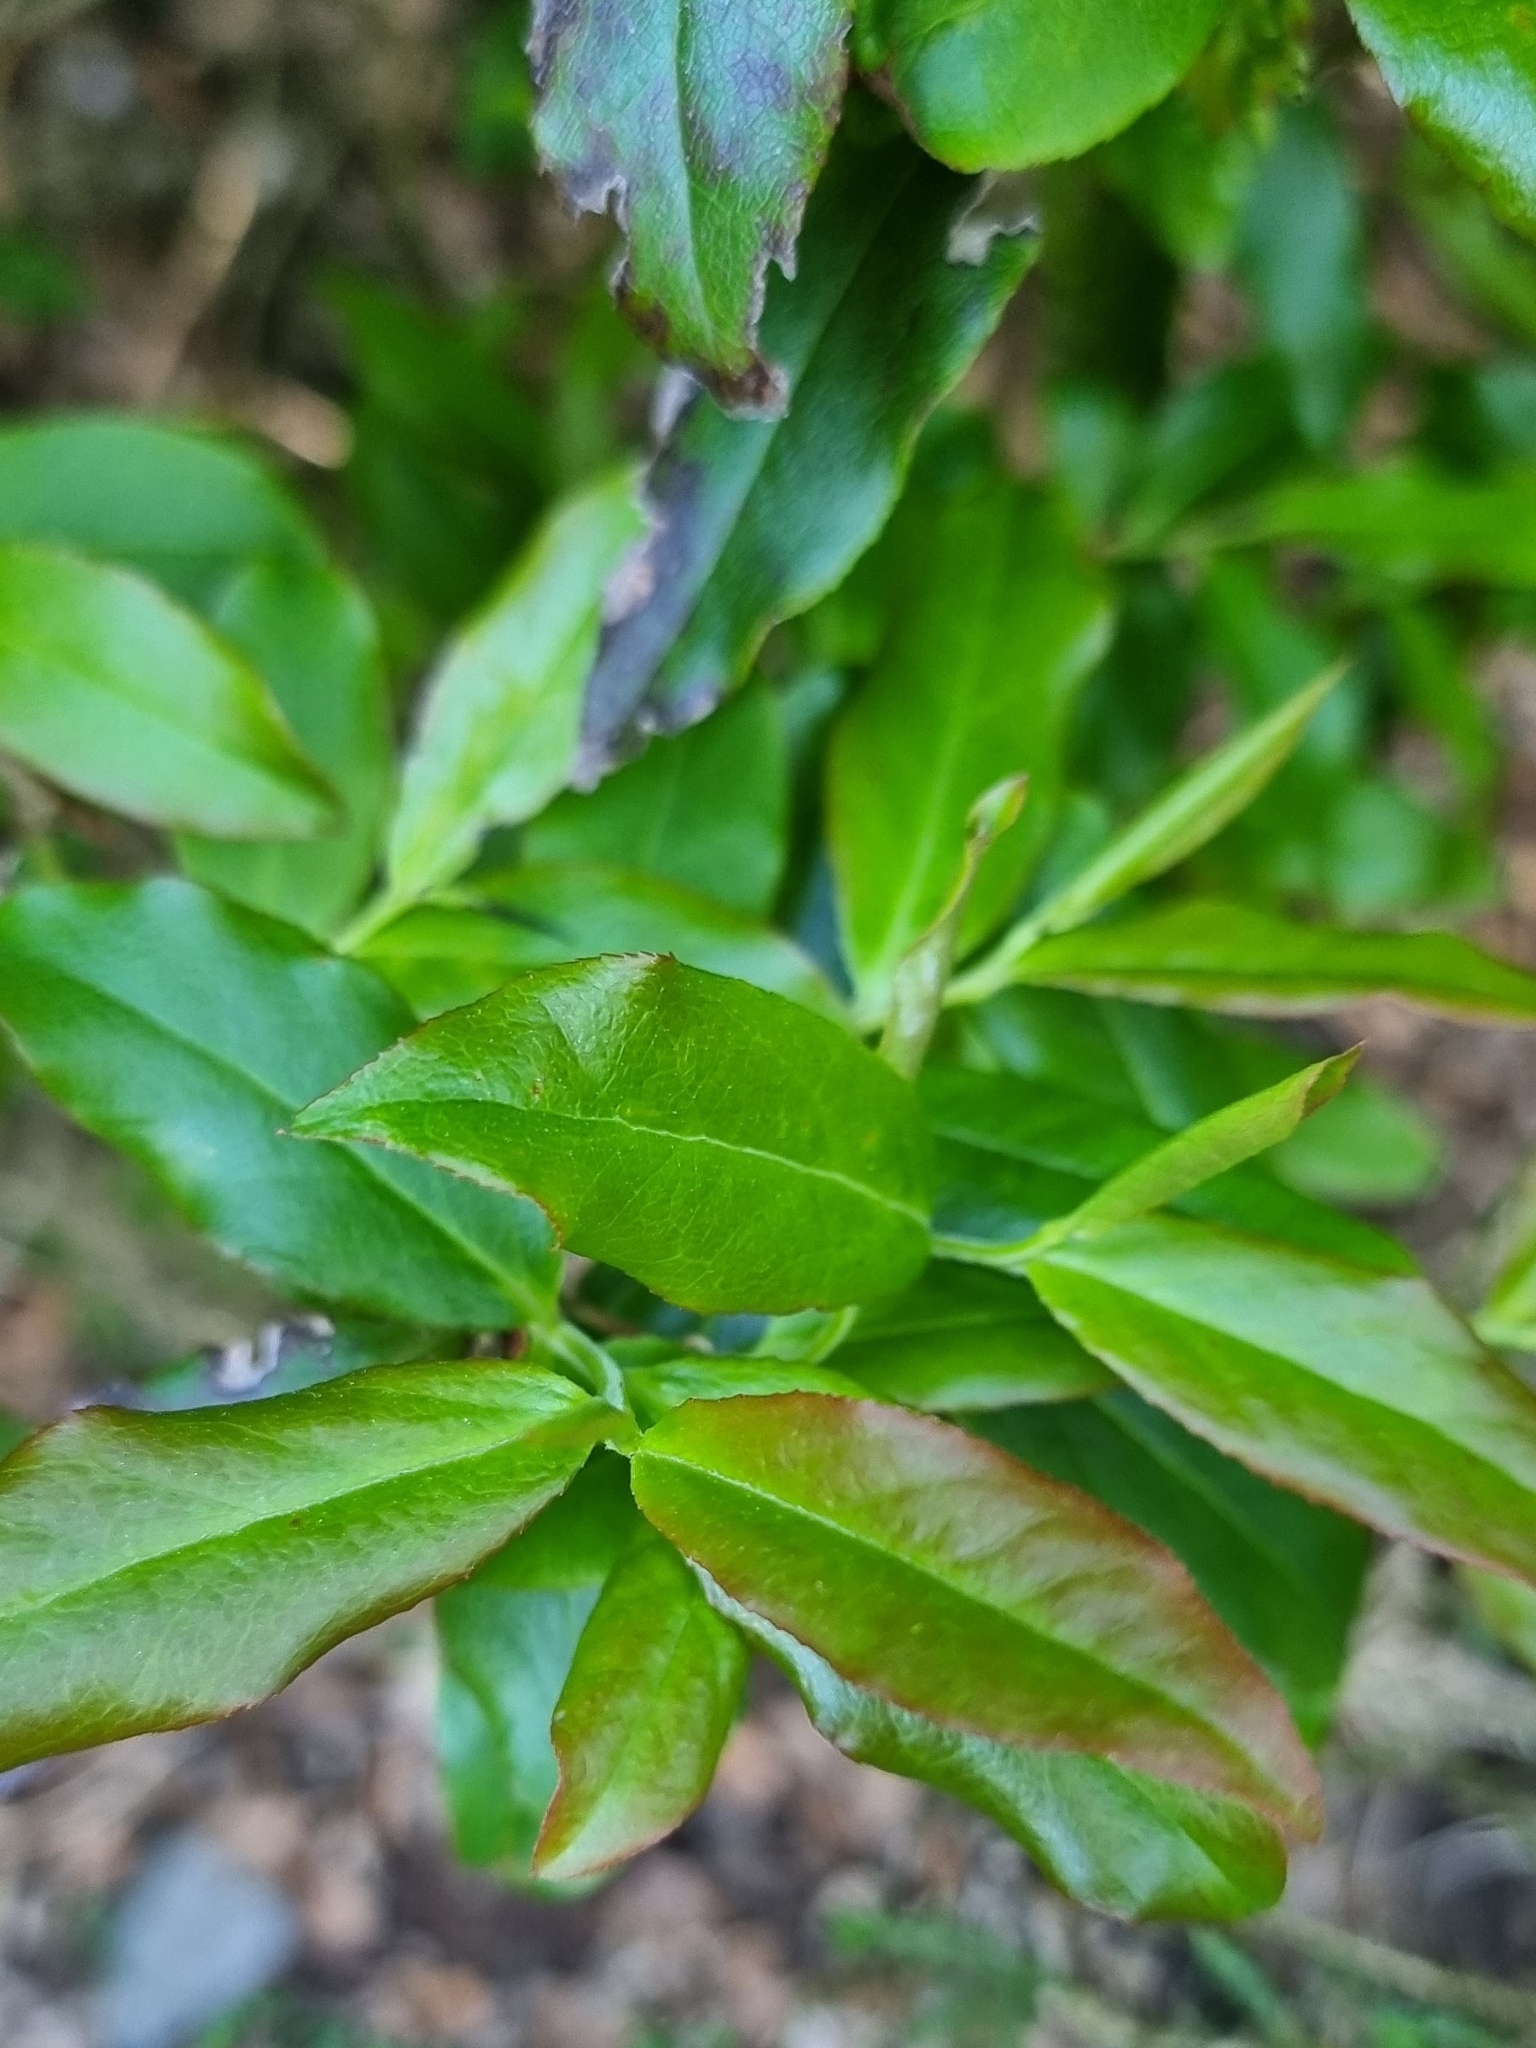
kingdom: Plantae
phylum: Tracheophyta
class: Magnoliopsida
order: Ericales
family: Ericaceae
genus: Vaccinium
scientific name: Vaccinium padifolium
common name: Madeiran blueberry
